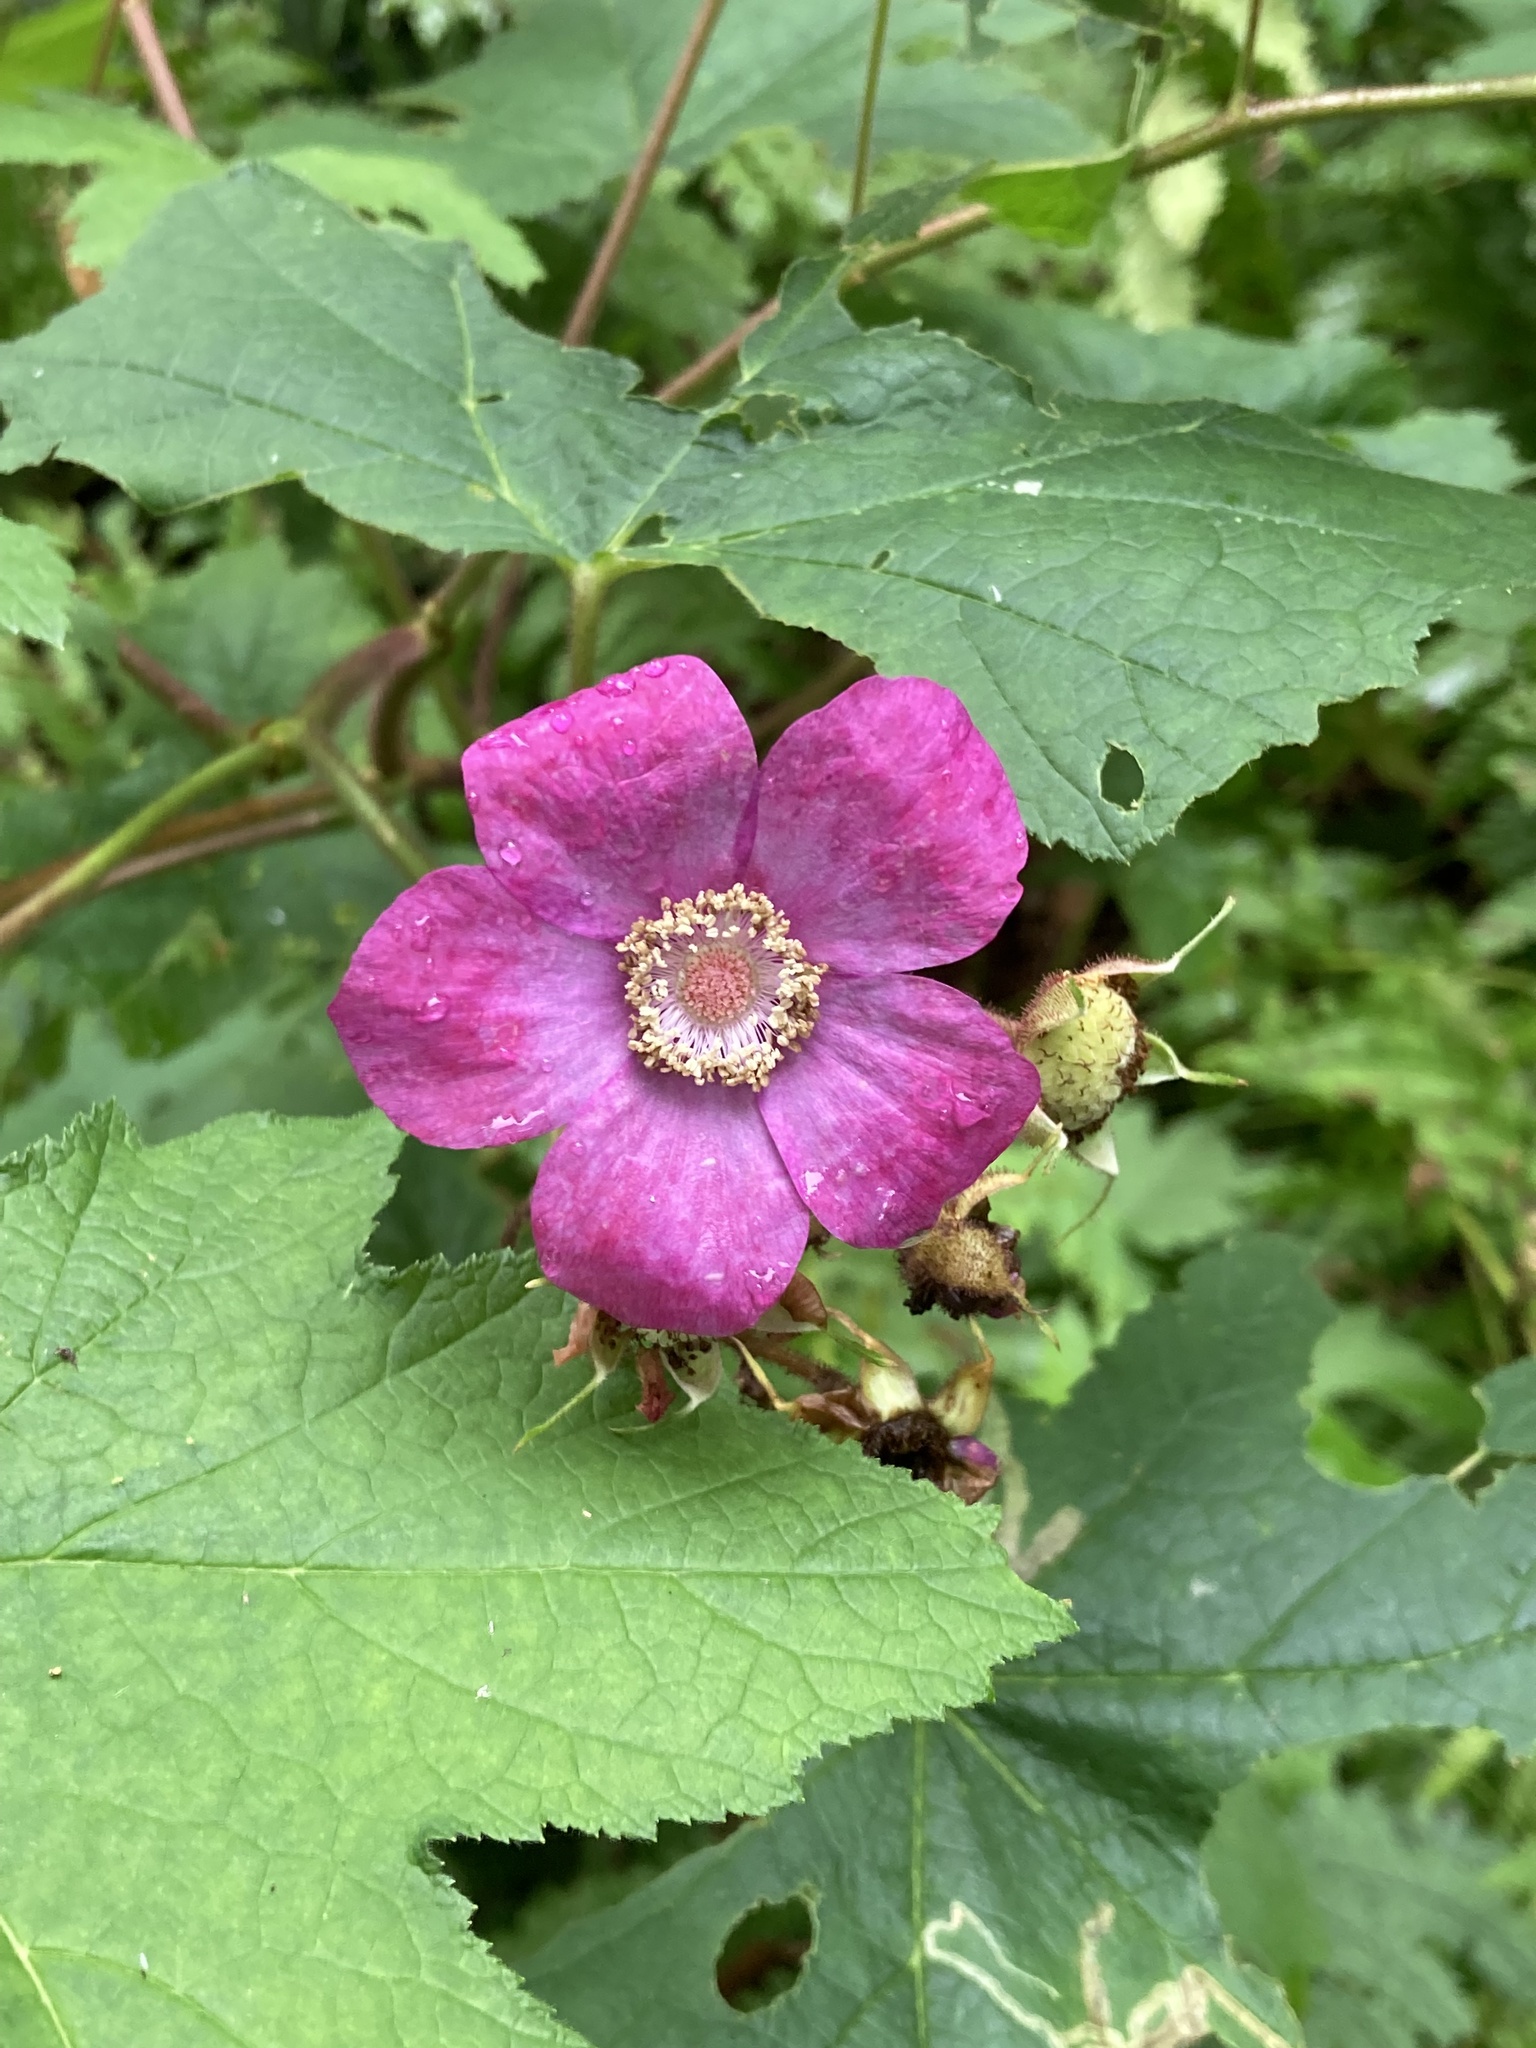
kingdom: Plantae
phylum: Tracheophyta
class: Magnoliopsida
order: Rosales
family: Rosaceae
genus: Rubus
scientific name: Rubus odoratus
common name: Purple-flowered raspberry
